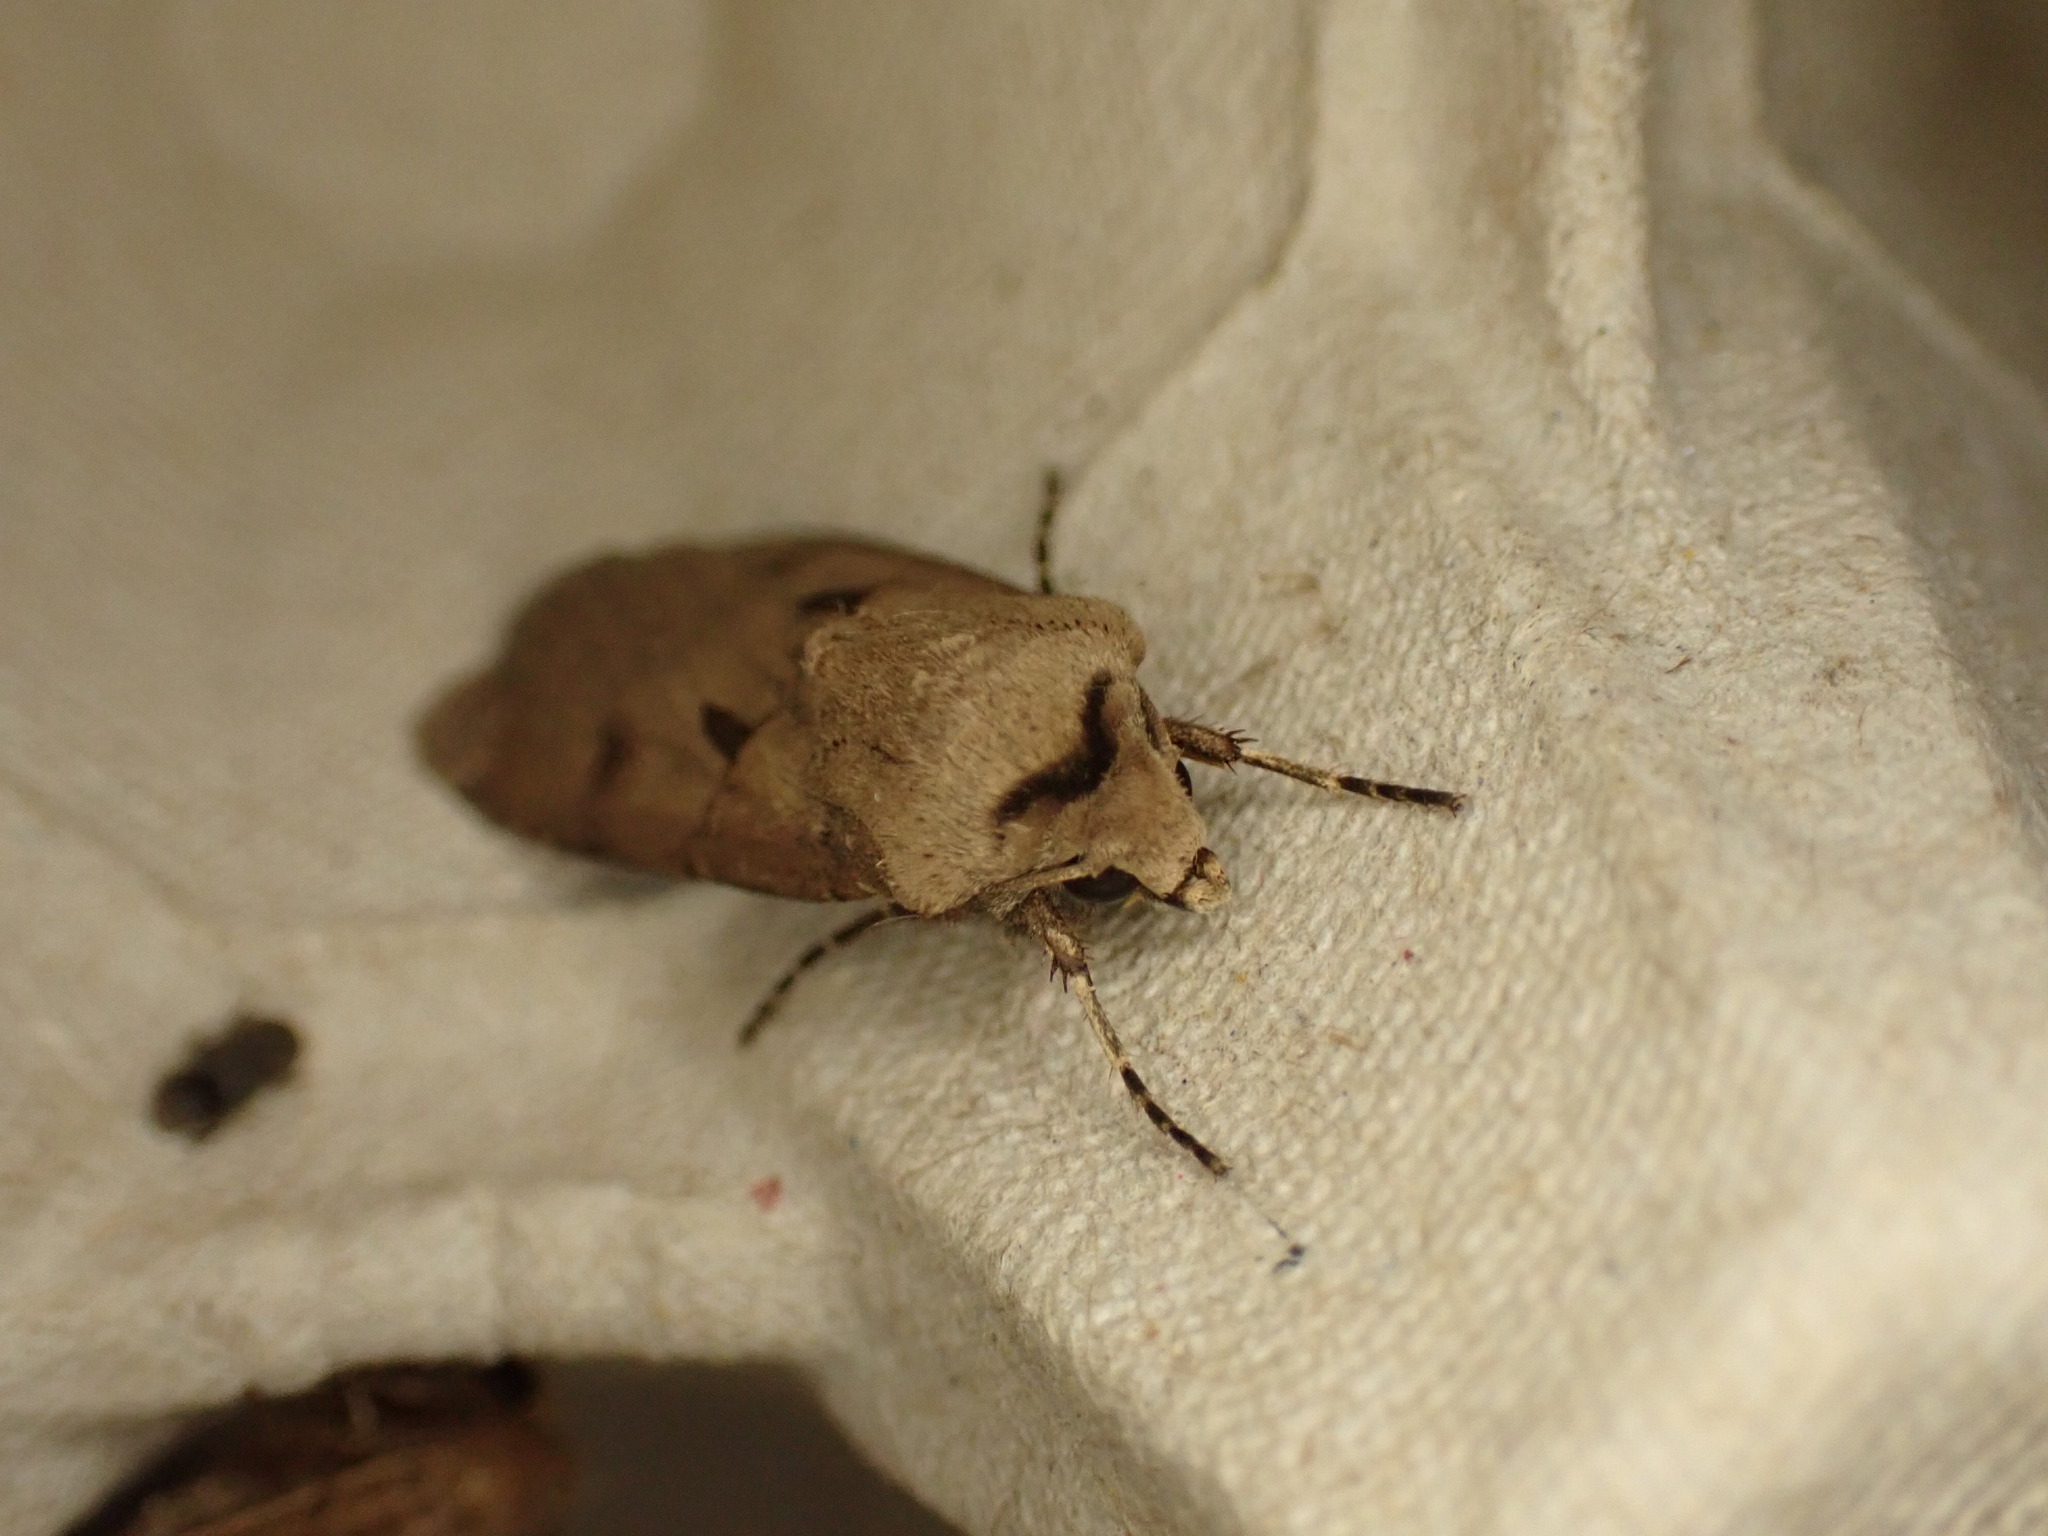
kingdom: Animalia
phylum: Arthropoda
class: Insecta
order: Lepidoptera
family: Noctuidae
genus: Agrotis
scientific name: Agrotis exclamationis
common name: Heart and dart
